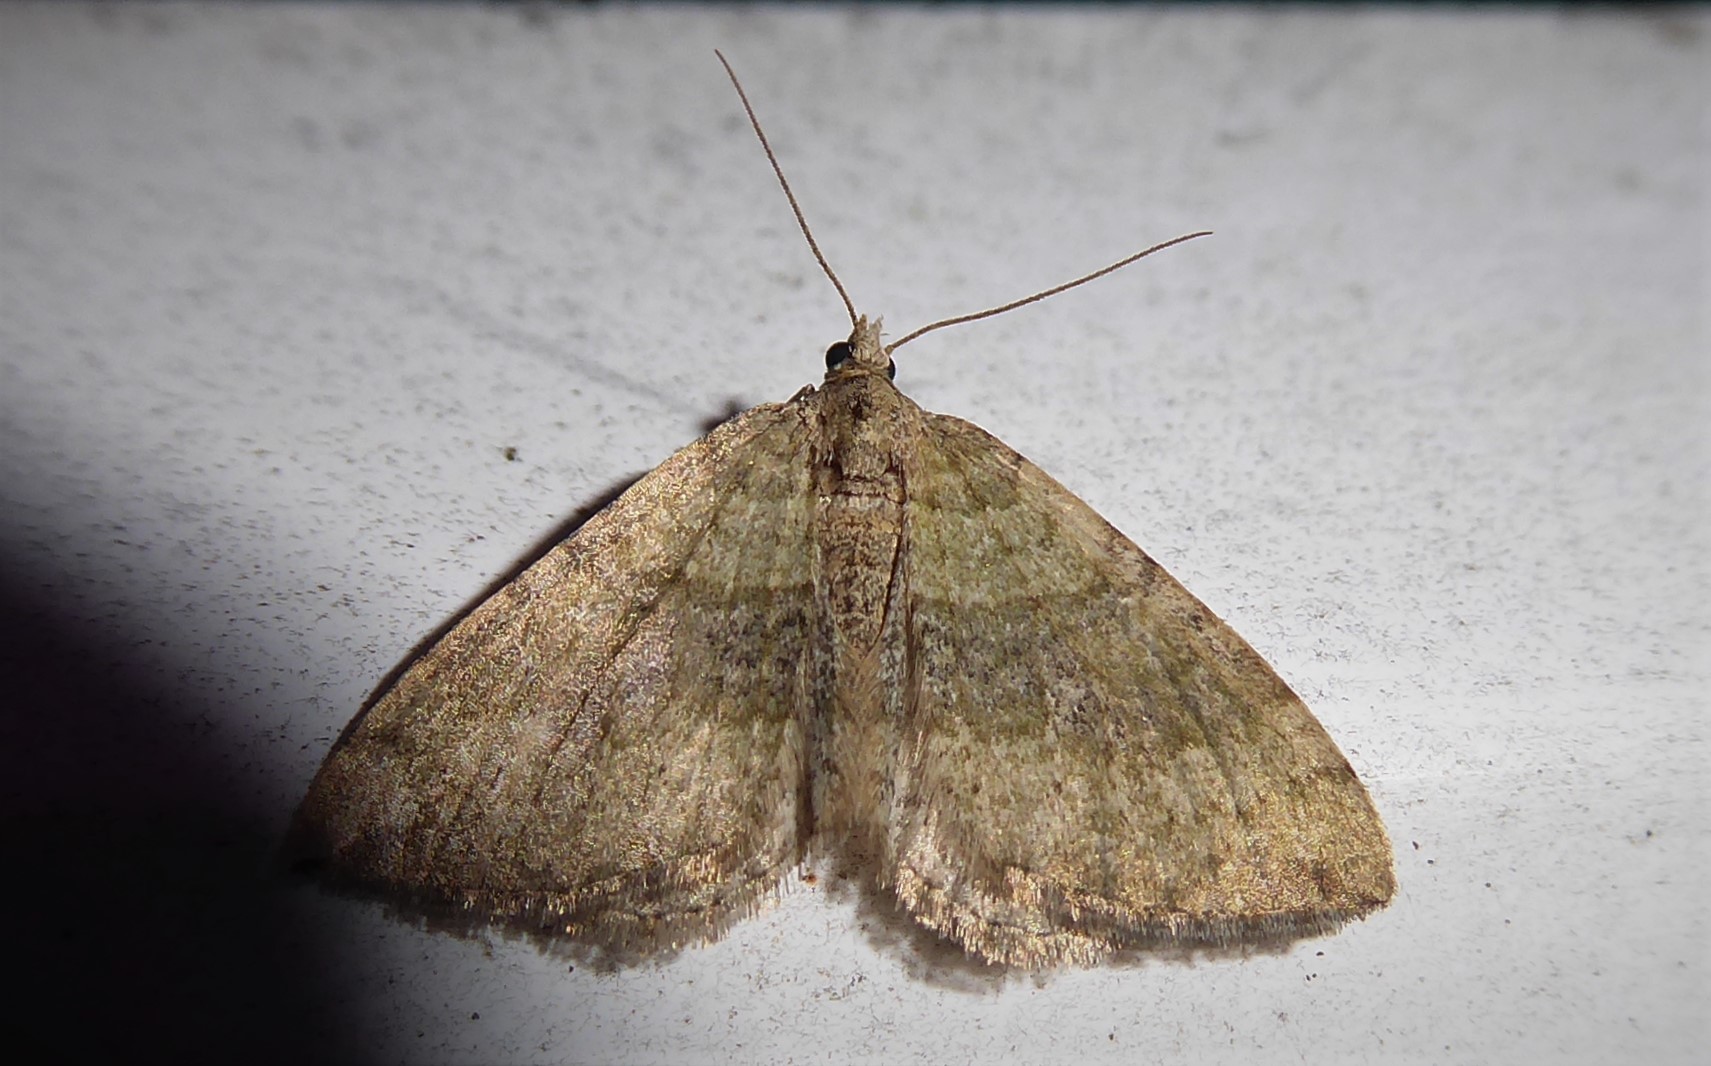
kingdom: Animalia
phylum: Arthropoda
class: Insecta
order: Lepidoptera
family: Geometridae
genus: Epyaxa
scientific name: Epyaxa rosearia
